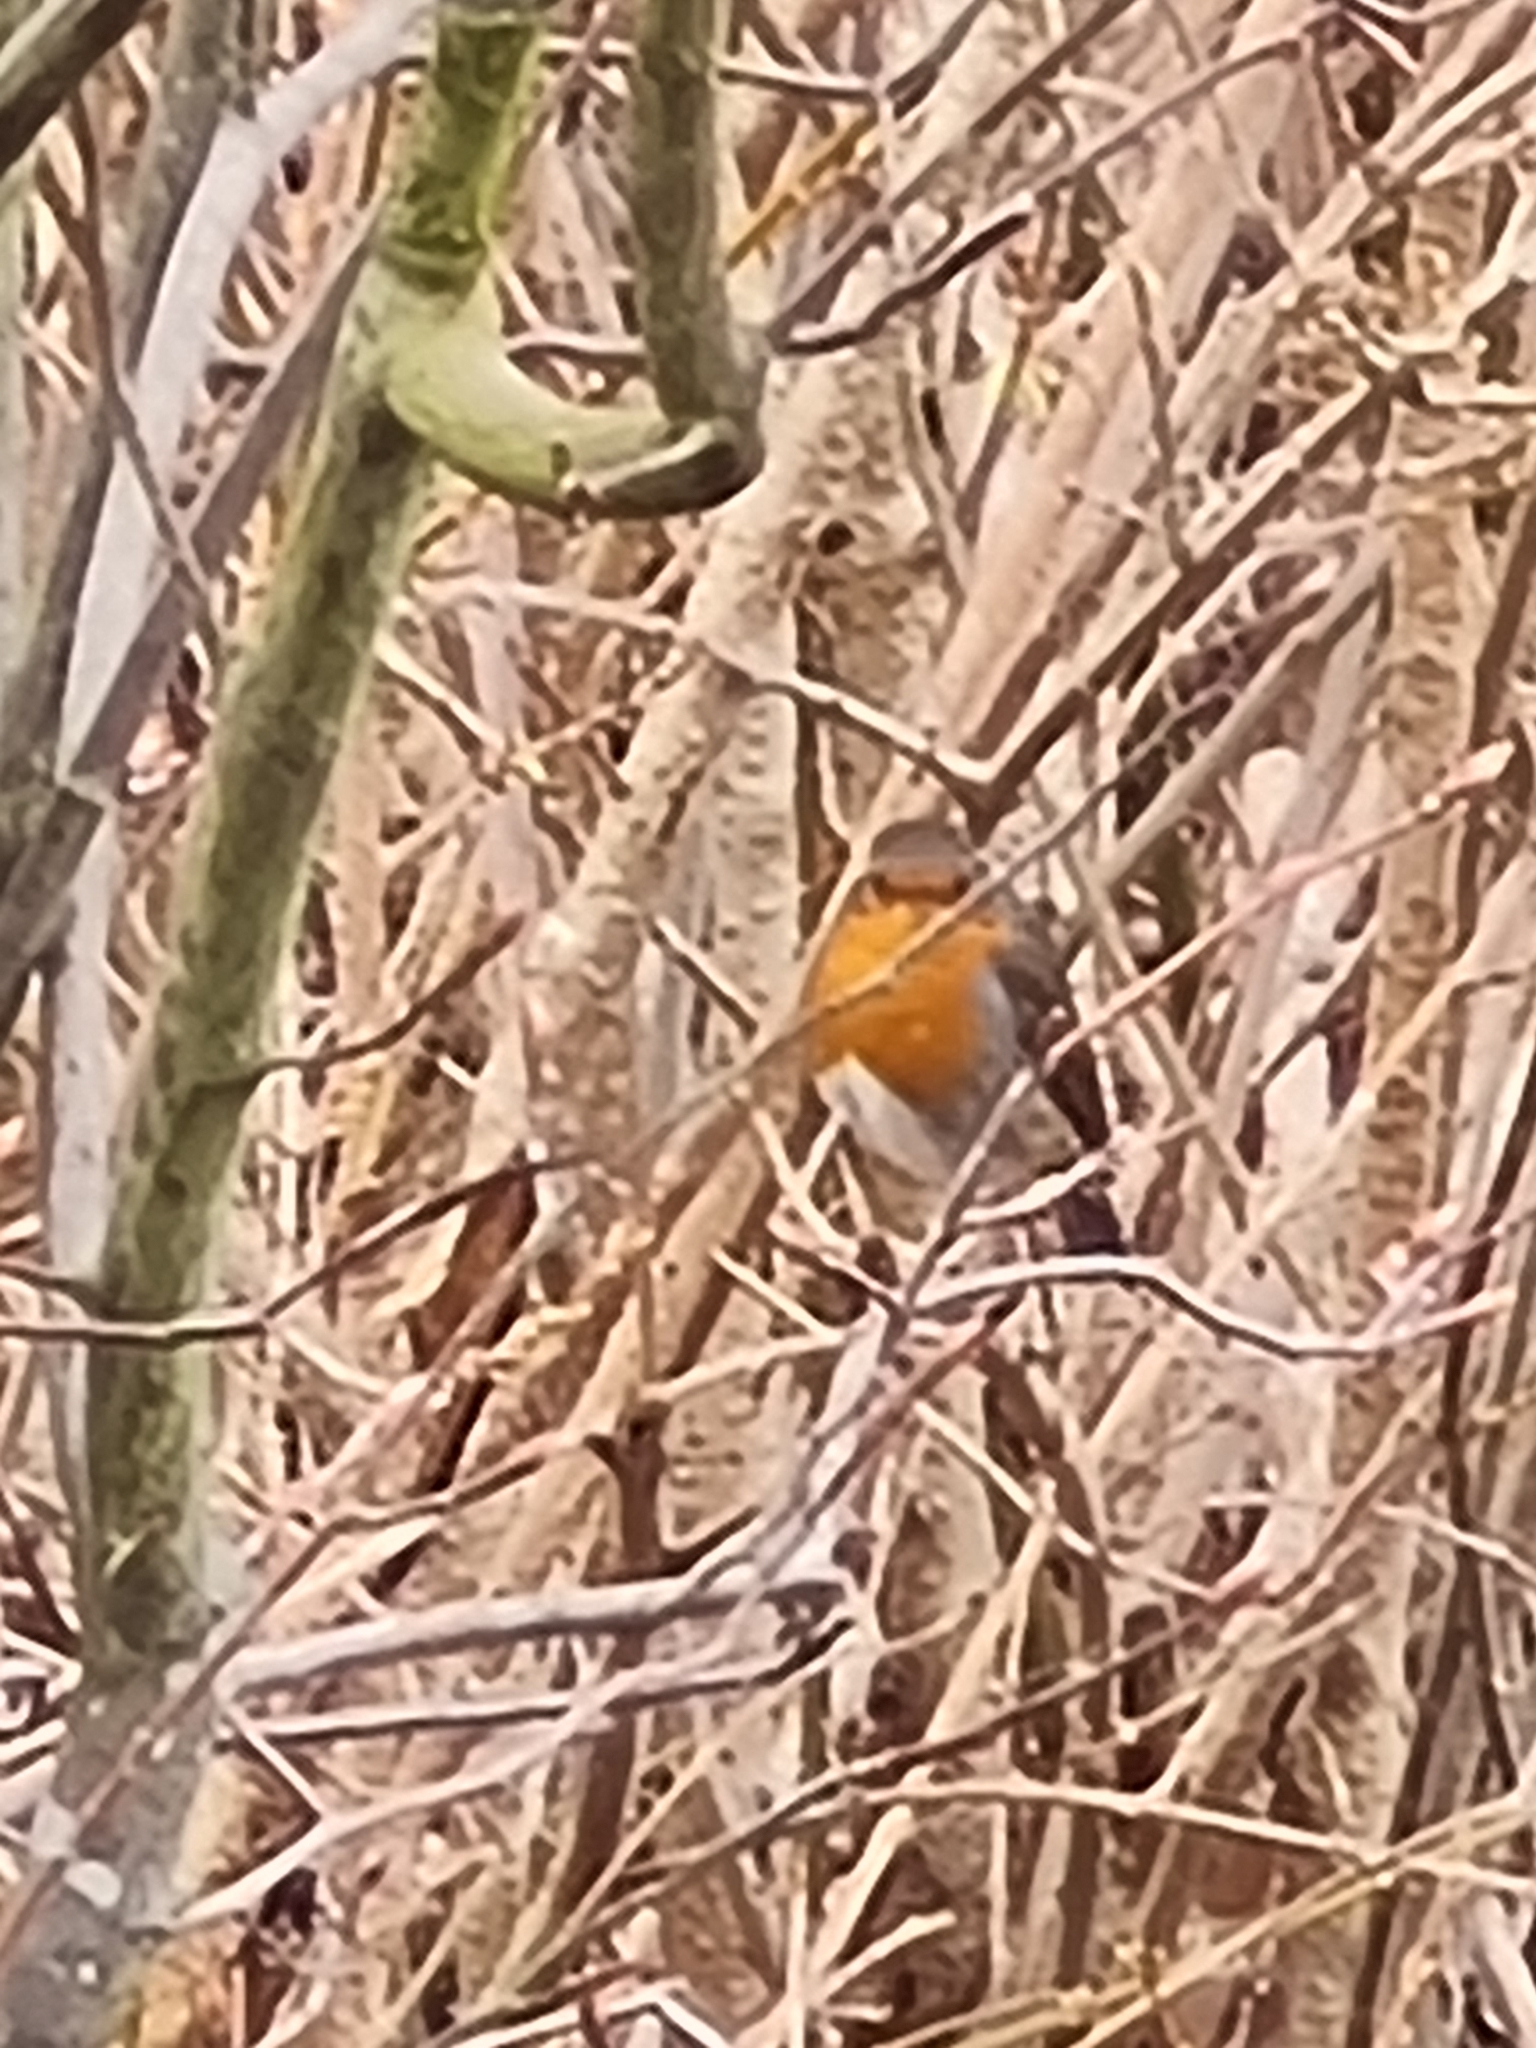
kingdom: Animalia
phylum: Chordata
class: Aves
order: Passeriformes
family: Muscicapidae
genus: Erithacus
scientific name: Erithacus rubecula
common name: European robin
